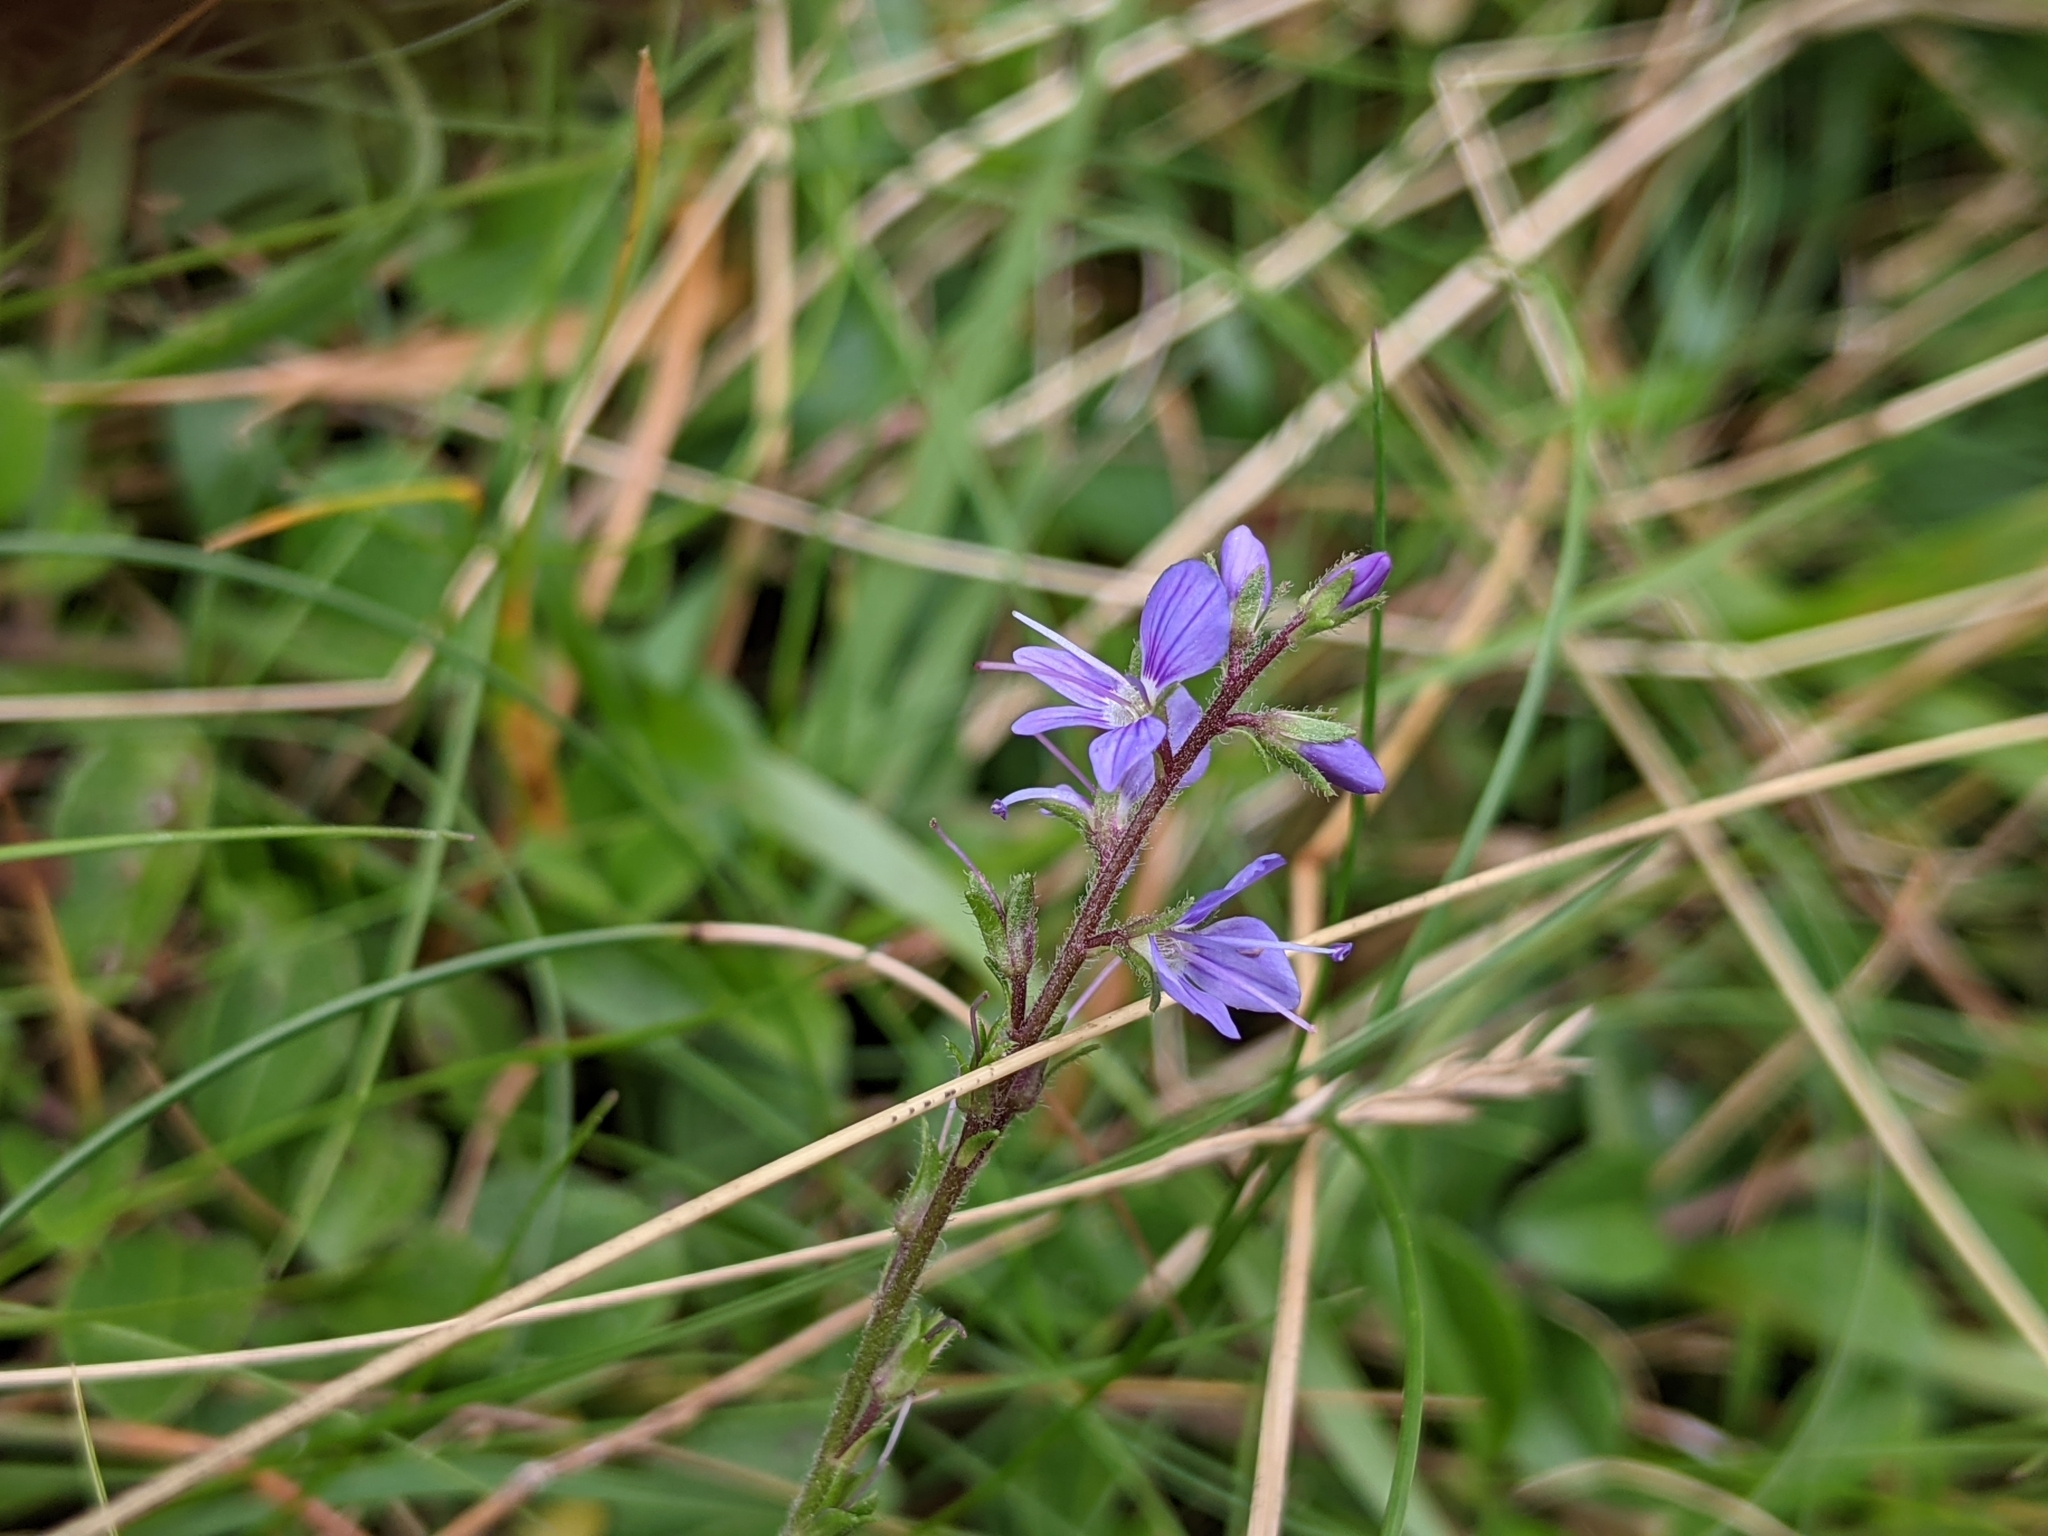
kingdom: Plantae
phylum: Tracheophyta
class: Magnoliopsida
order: Lamiales
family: Plantaginaceae
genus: Veronica
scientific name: Veronica officinalis
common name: Common speedwell
